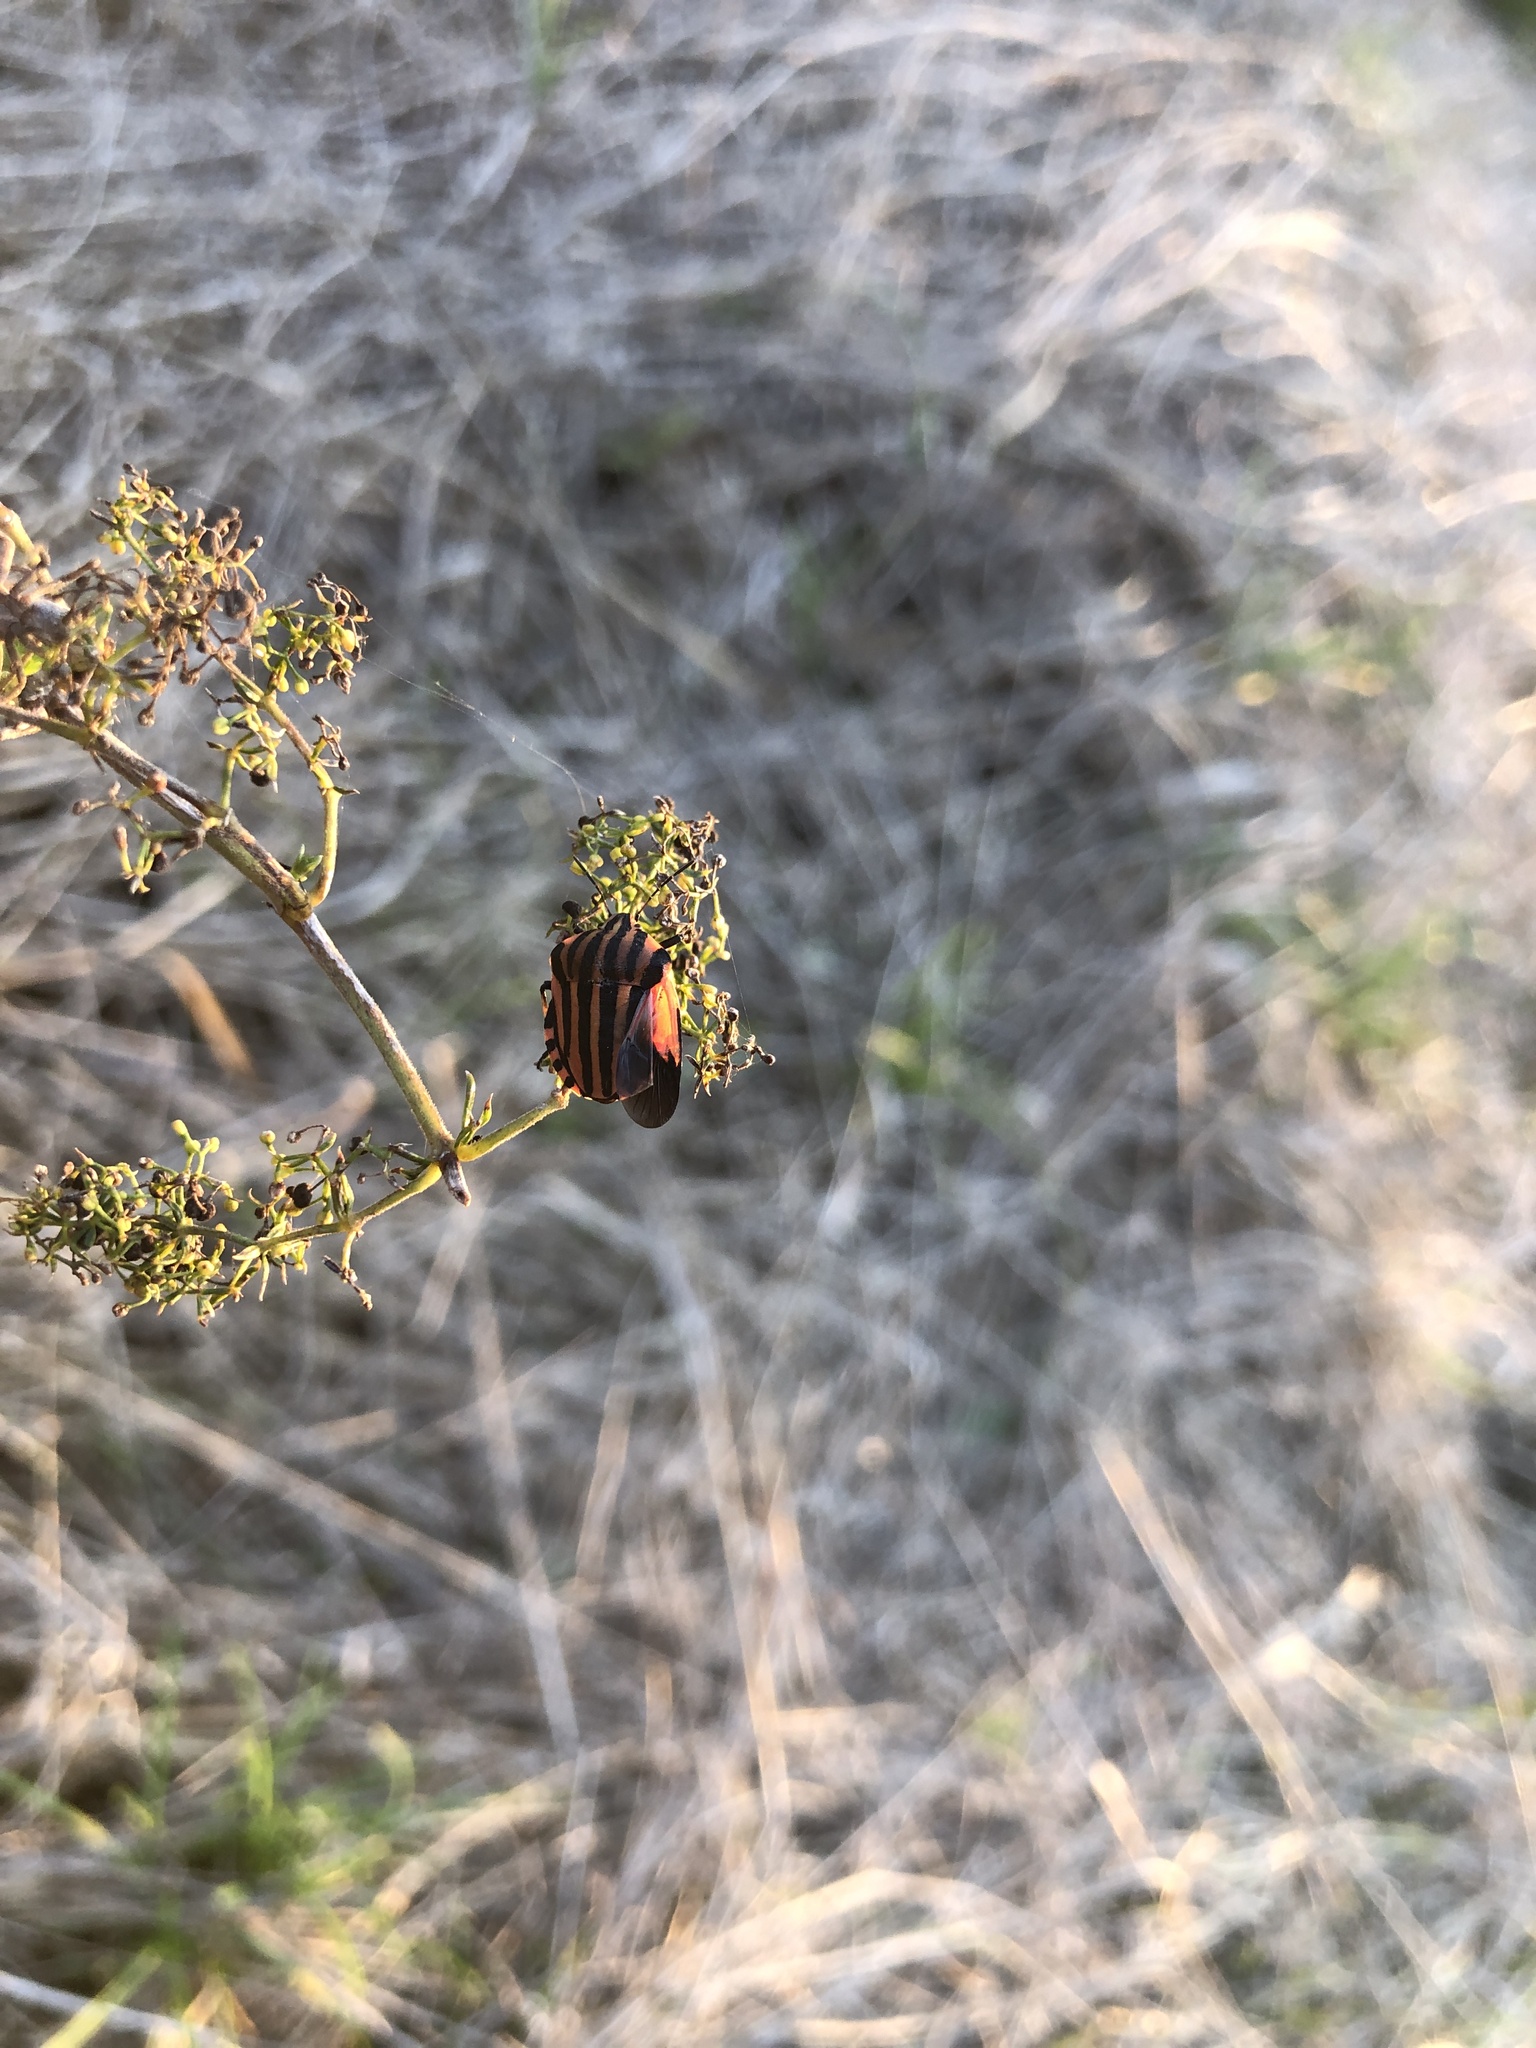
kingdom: Animalia
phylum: Arthropoda
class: Insecta
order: Hemiptera
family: Pentatomidae
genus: Graphosoma
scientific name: Graphosoma italicum
